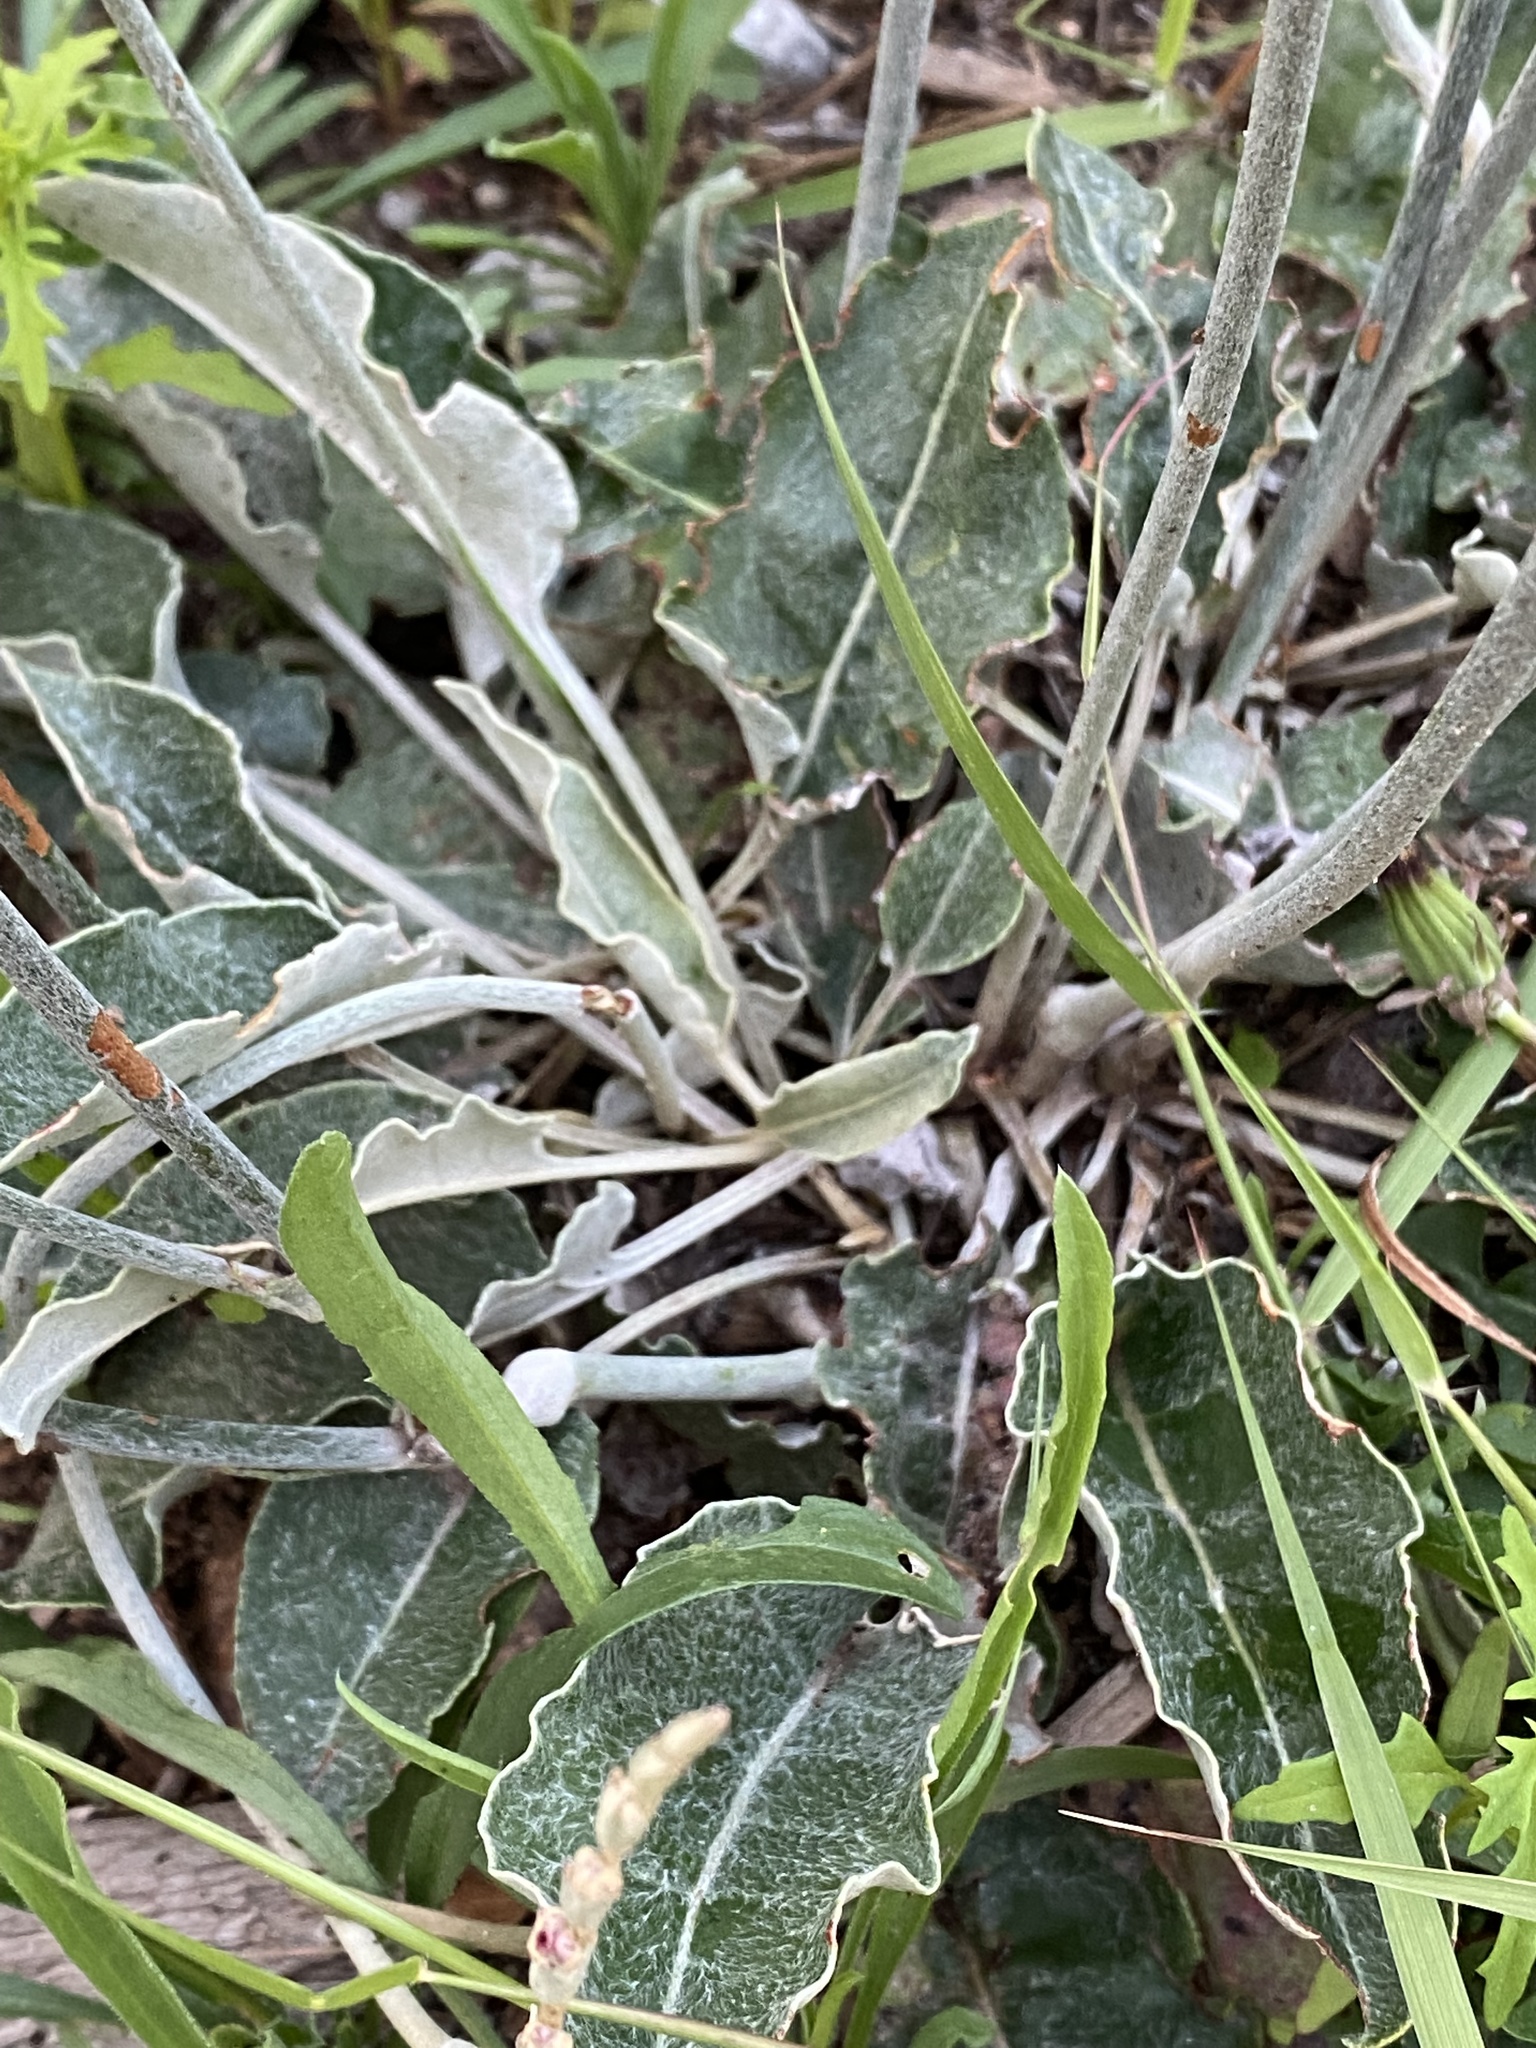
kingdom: Plantae
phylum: Tracheophyta
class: Magnoliopsida
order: Caryophyllales
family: Polygonaceae
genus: Eriogonum
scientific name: Eriogonum racemosum
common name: Redroot wild buckwheat
